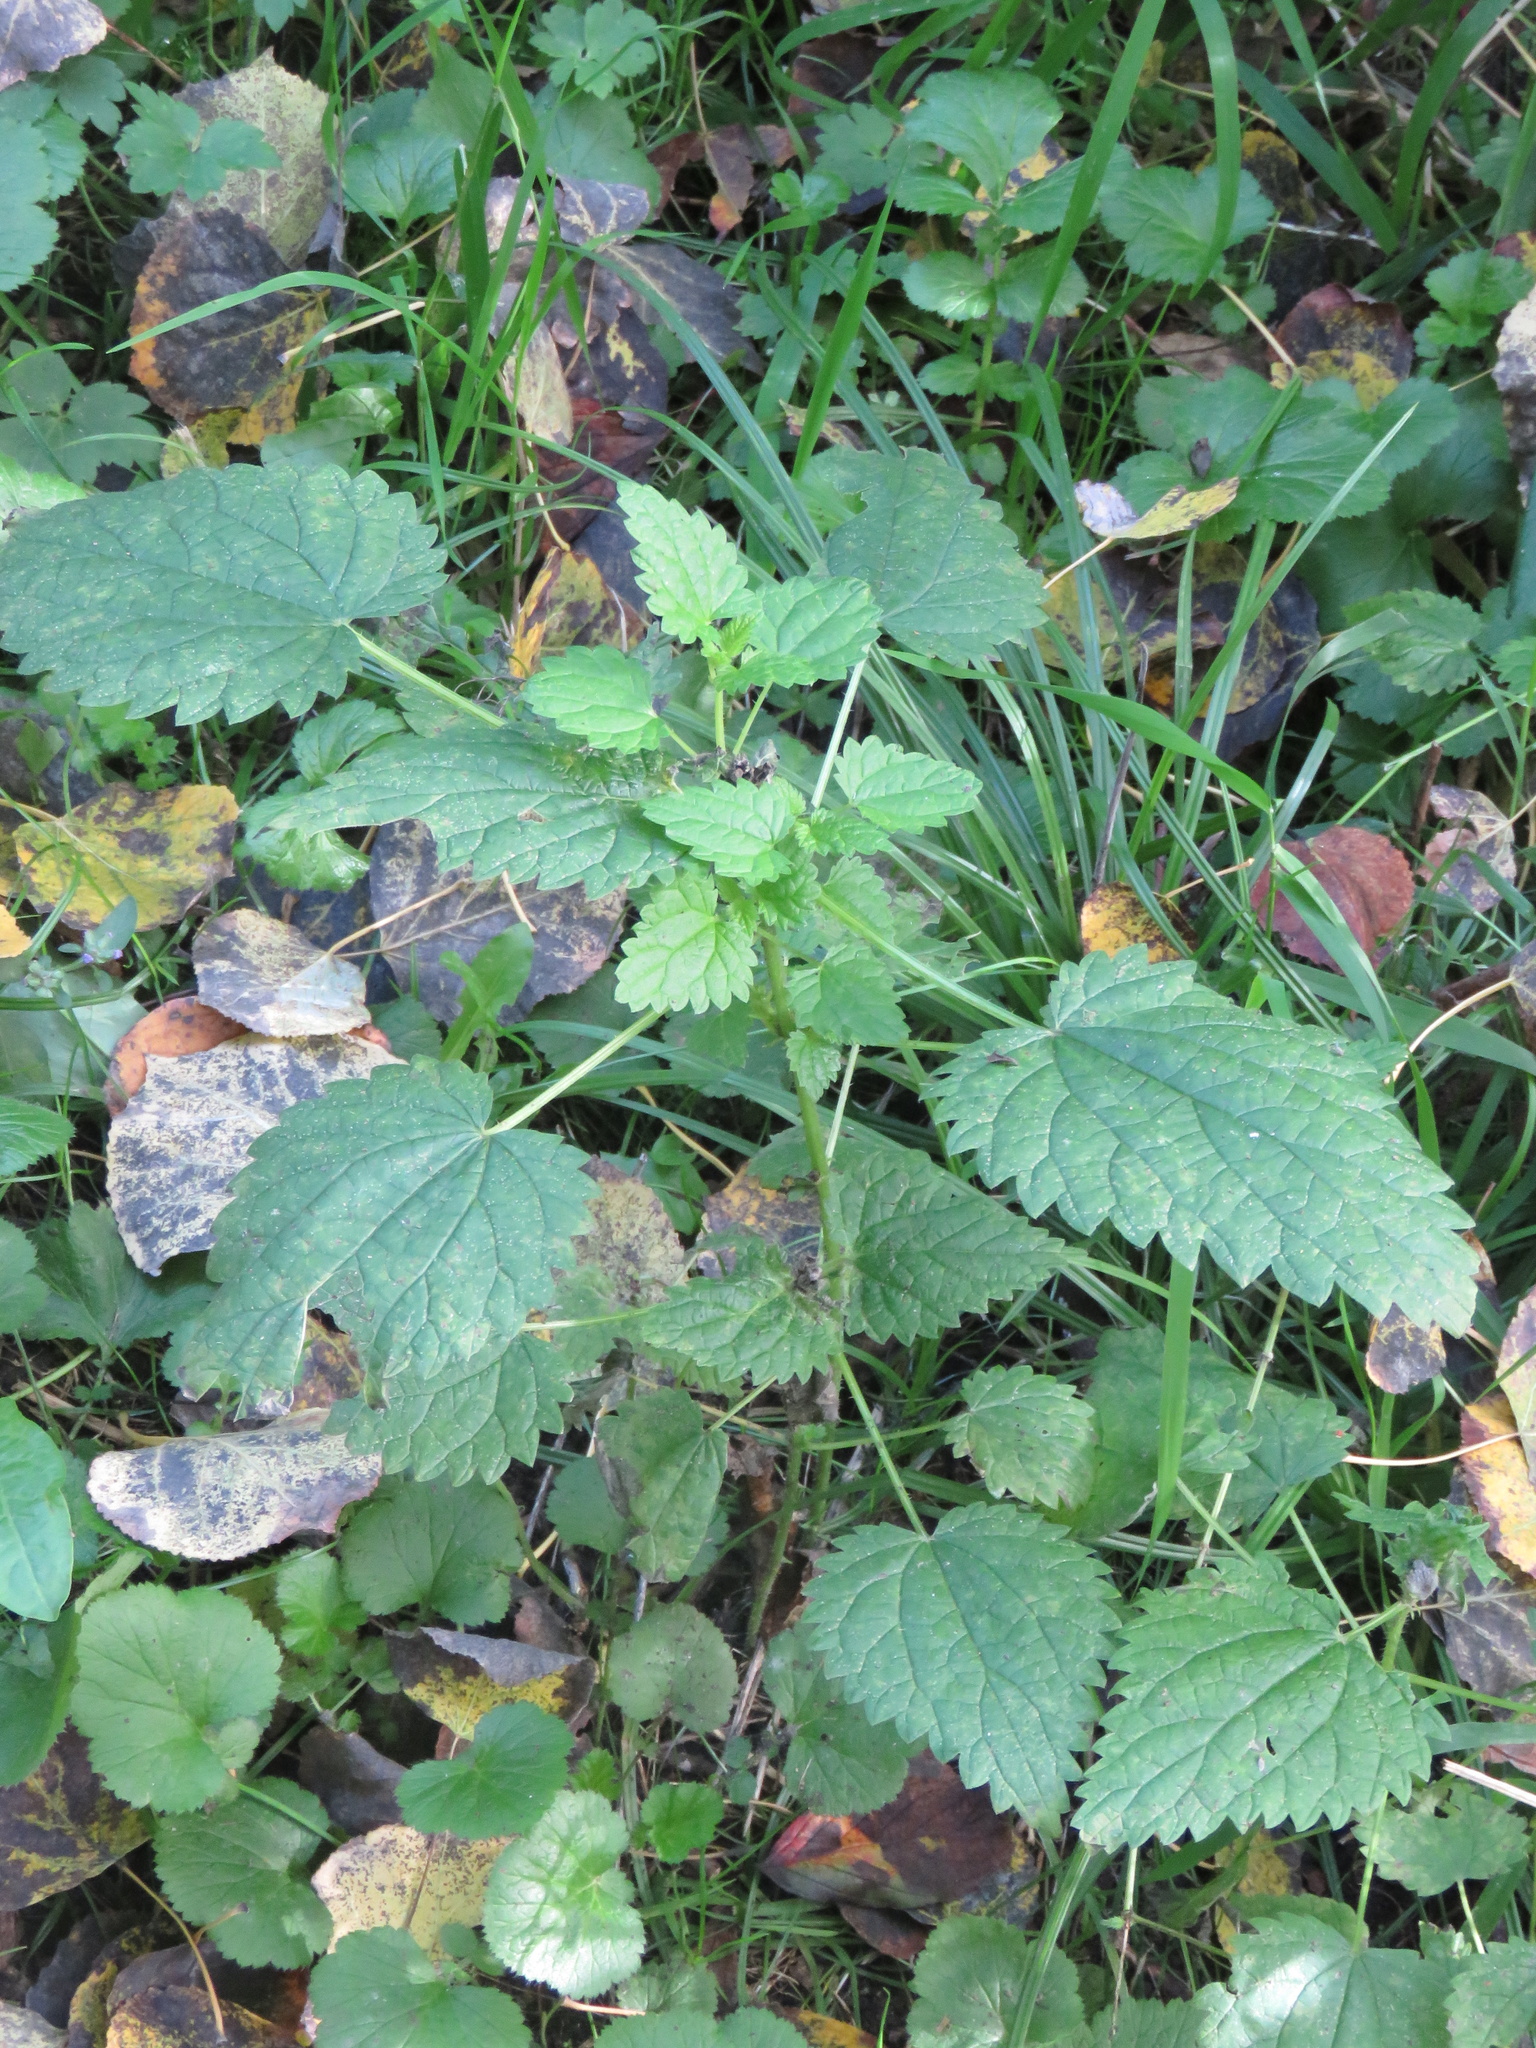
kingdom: Plantae
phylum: Tracheophyta
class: Magnoliopsida
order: Rosales
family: Urticaceae
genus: Urtica
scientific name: Urtica dioica
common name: Common nettle
